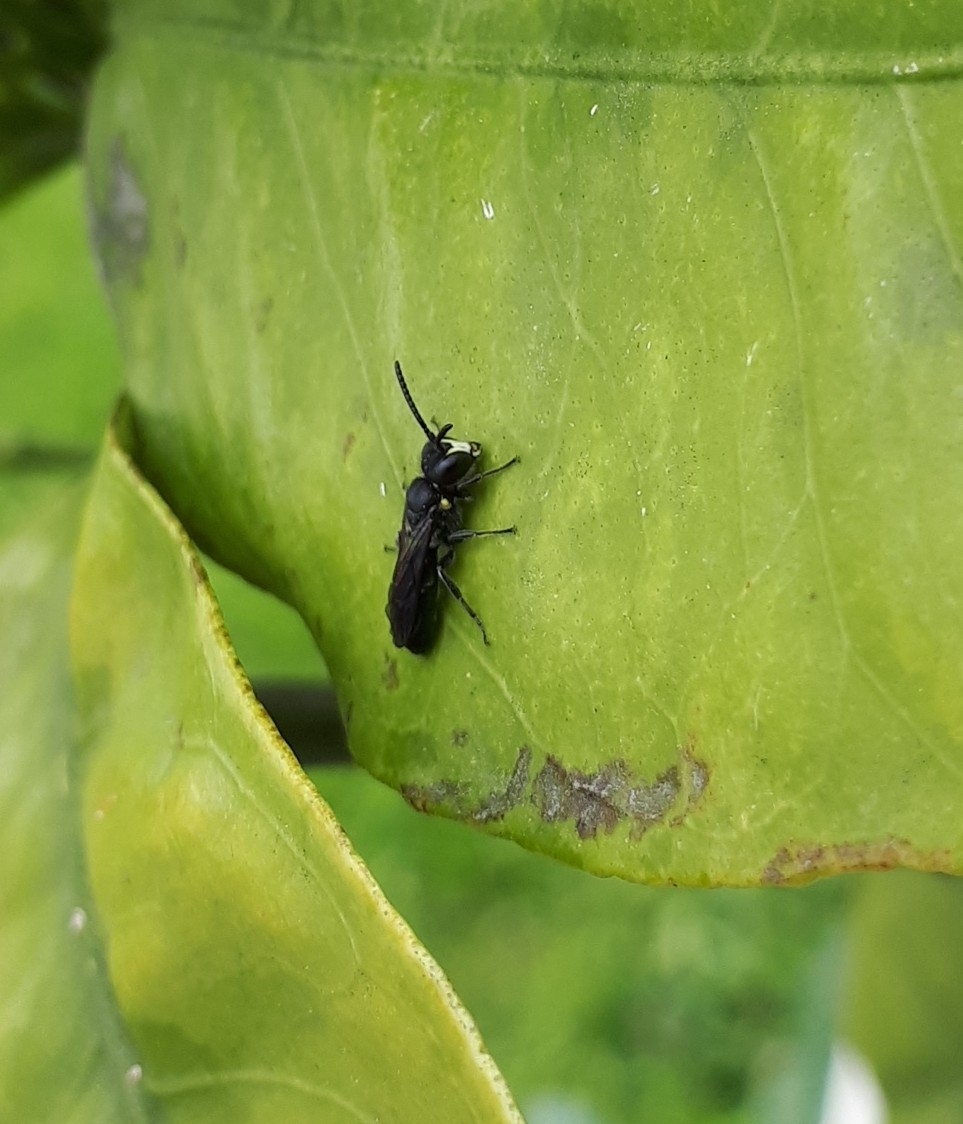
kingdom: Animalia
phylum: Arthropoda
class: Insecta
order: Hymenoptera
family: Colletidae
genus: Hylaeus
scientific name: Hylaeus relegatus
